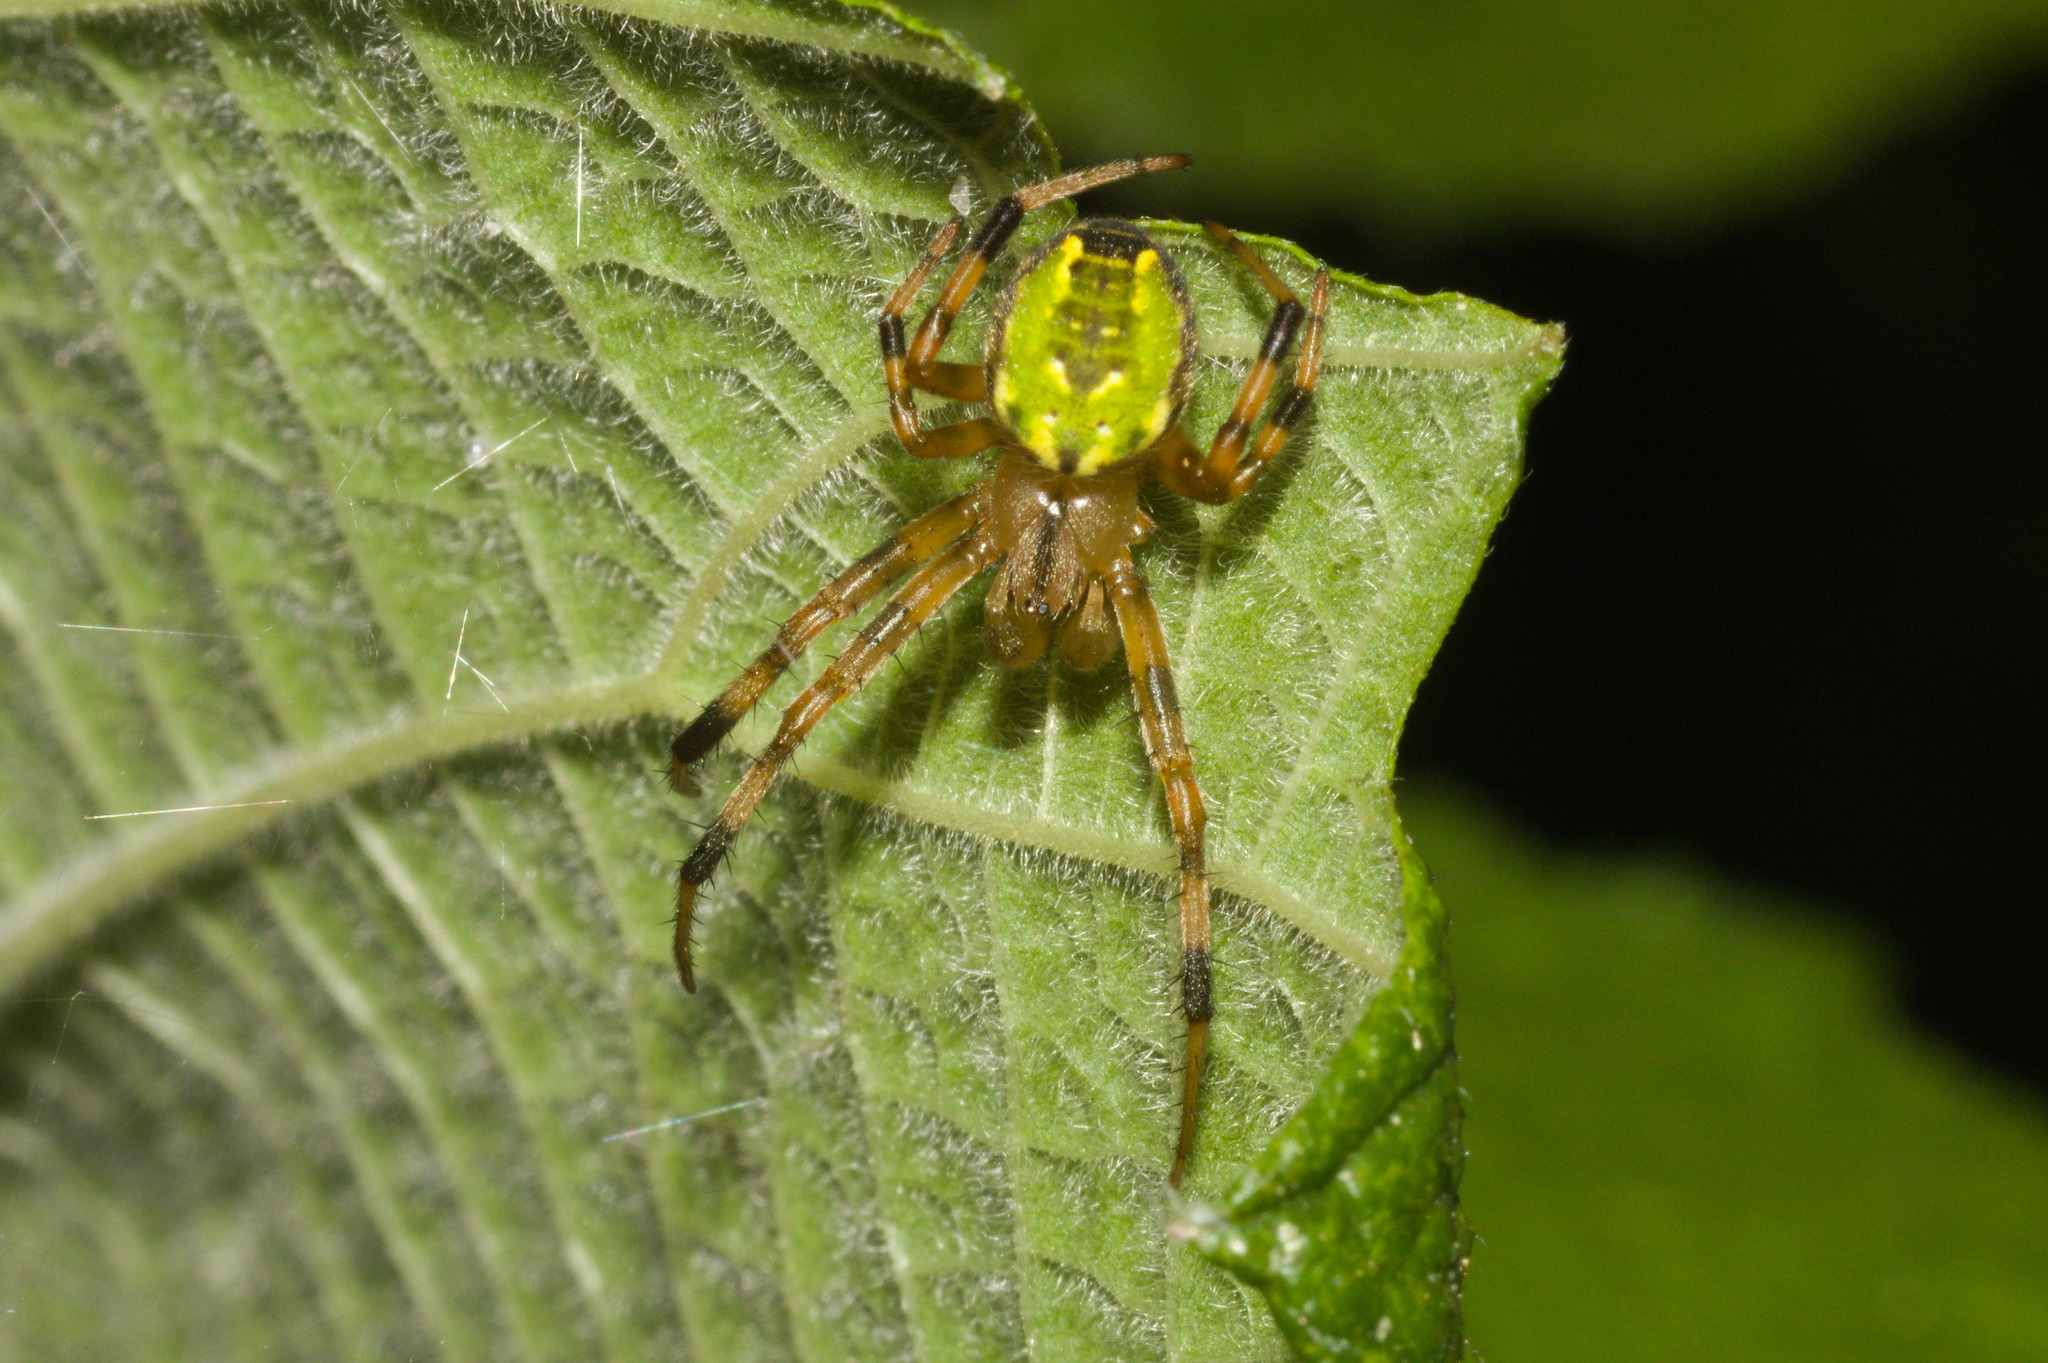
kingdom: Animalia
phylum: Arthropoda
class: Arachnida
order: Araneae
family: Araneidae
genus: Araneus
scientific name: Araneus venatrix
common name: Orb weavers
